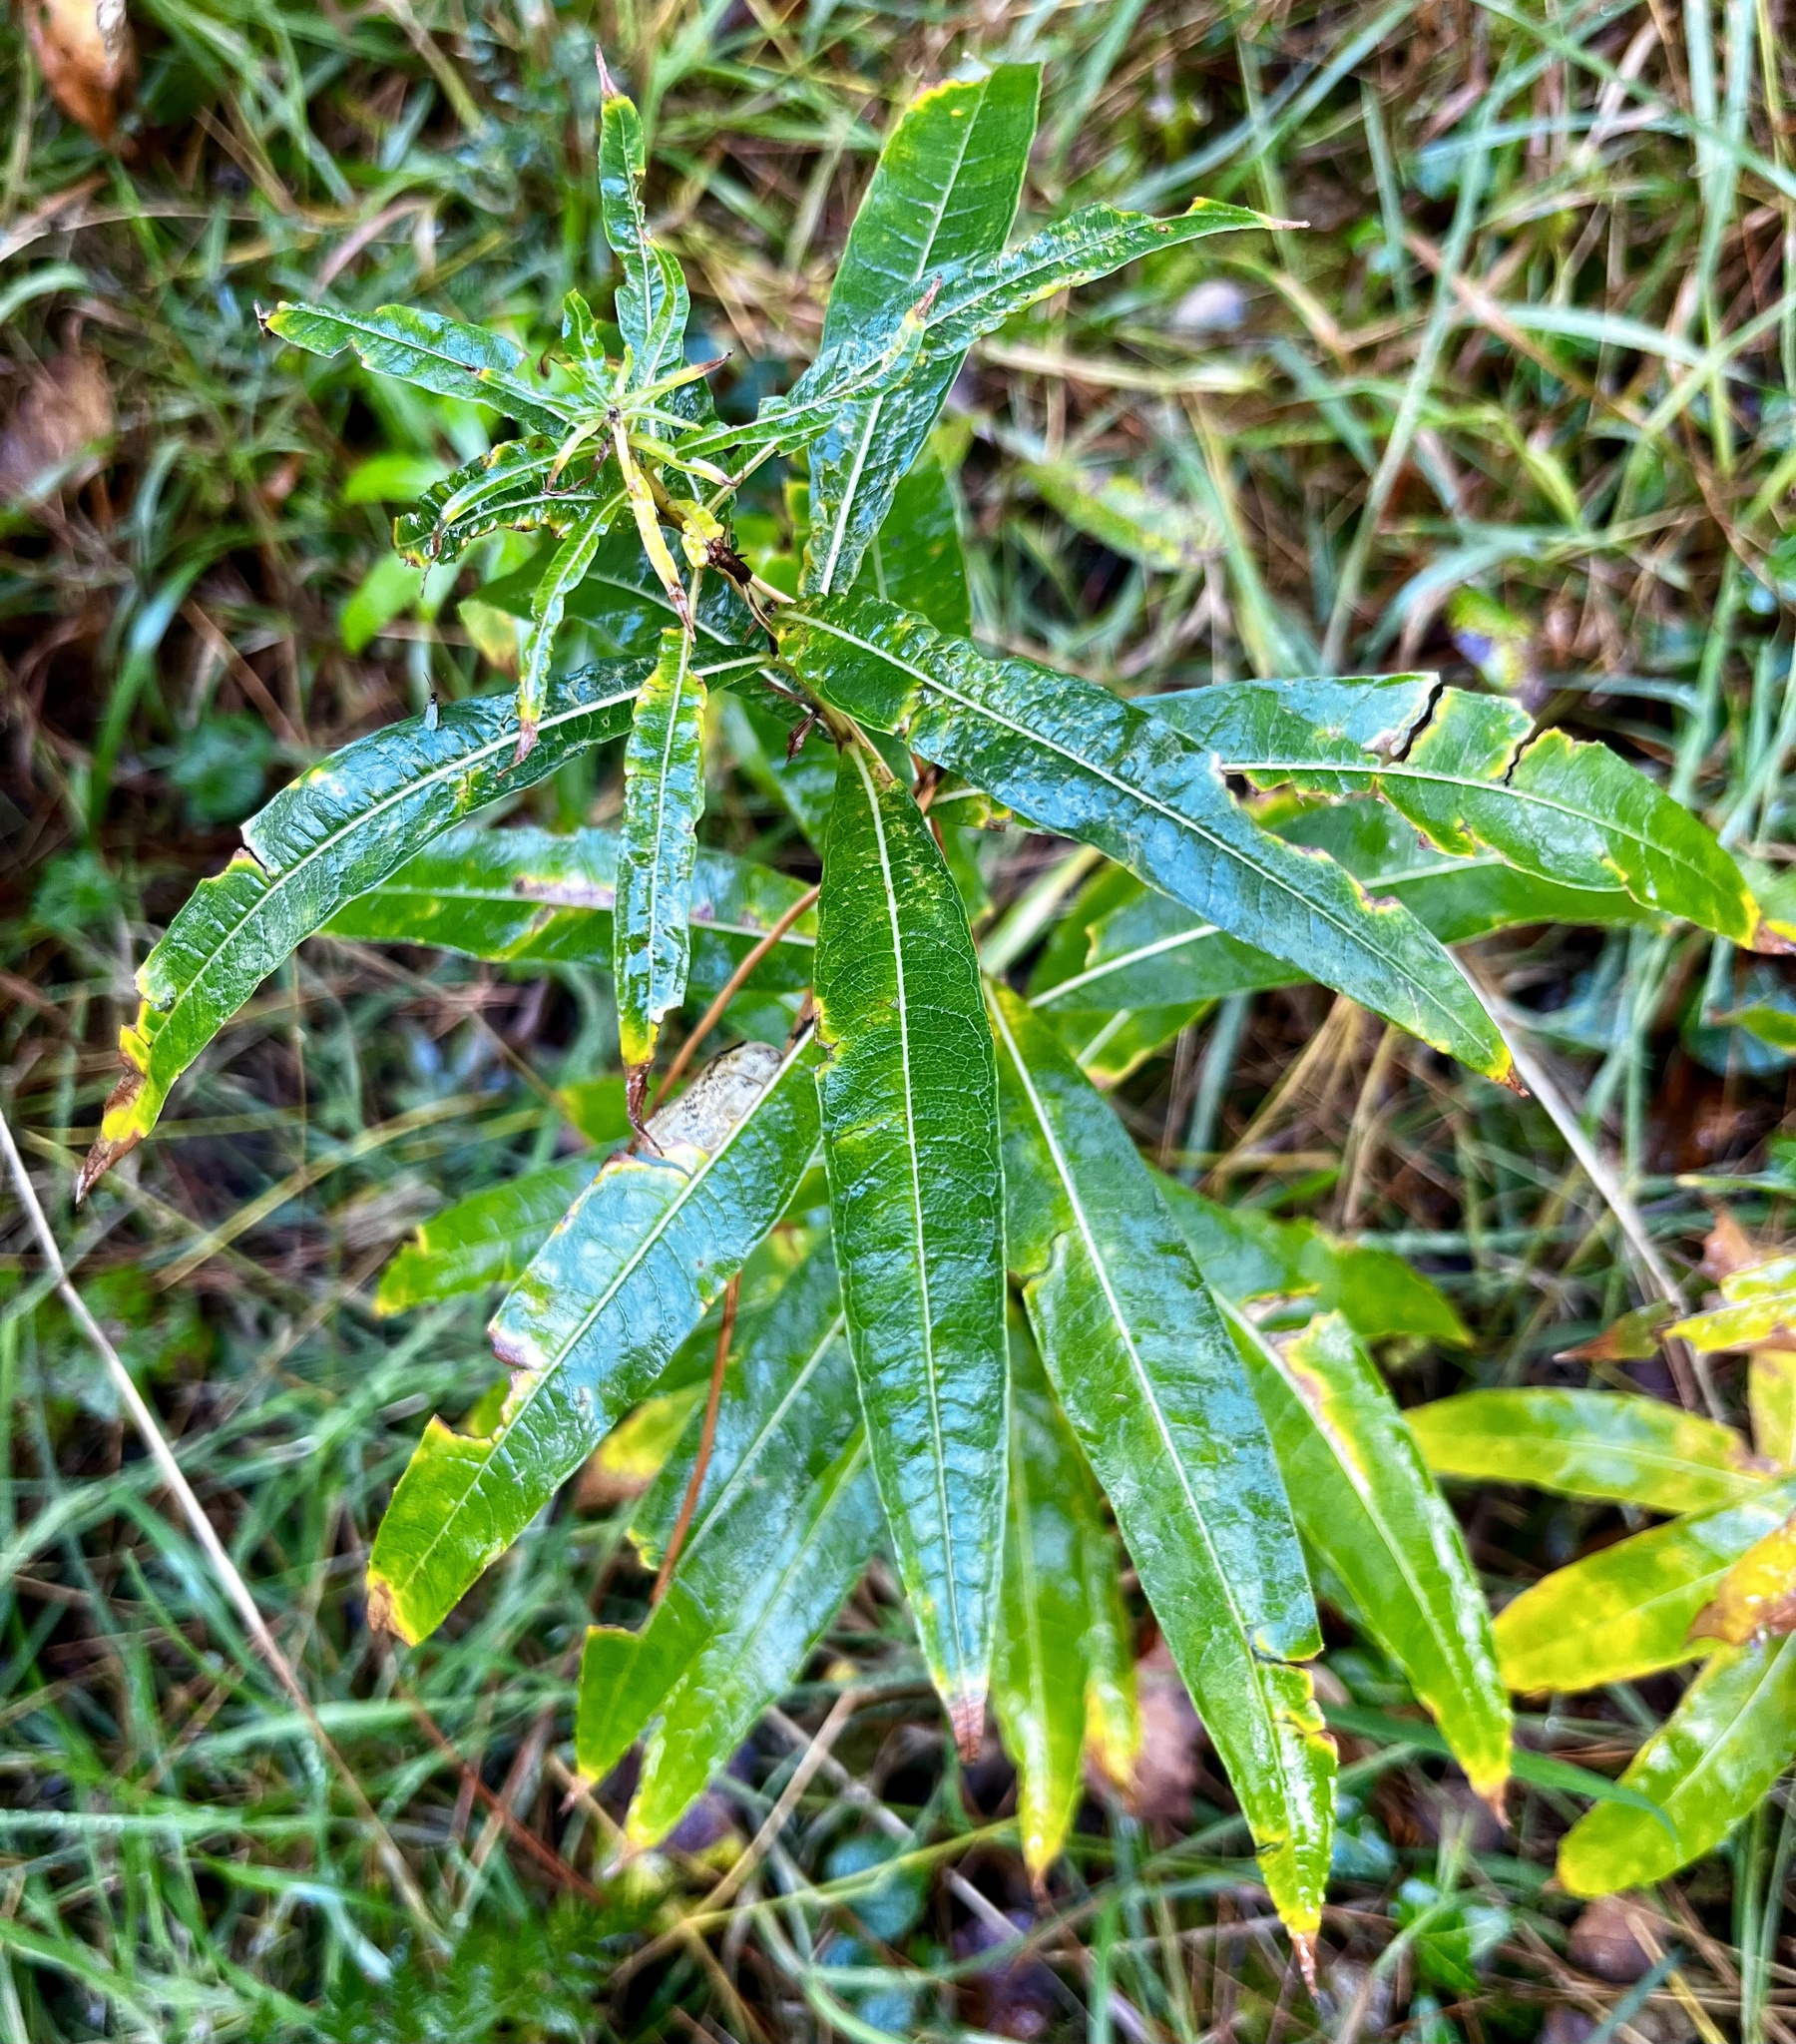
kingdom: Plantae
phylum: Tracheophyta
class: Magnoliopsida
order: Myrtales
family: Onagraceae
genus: Chamaenerion
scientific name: Chamaenerion angustifolium
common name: Fireweed
